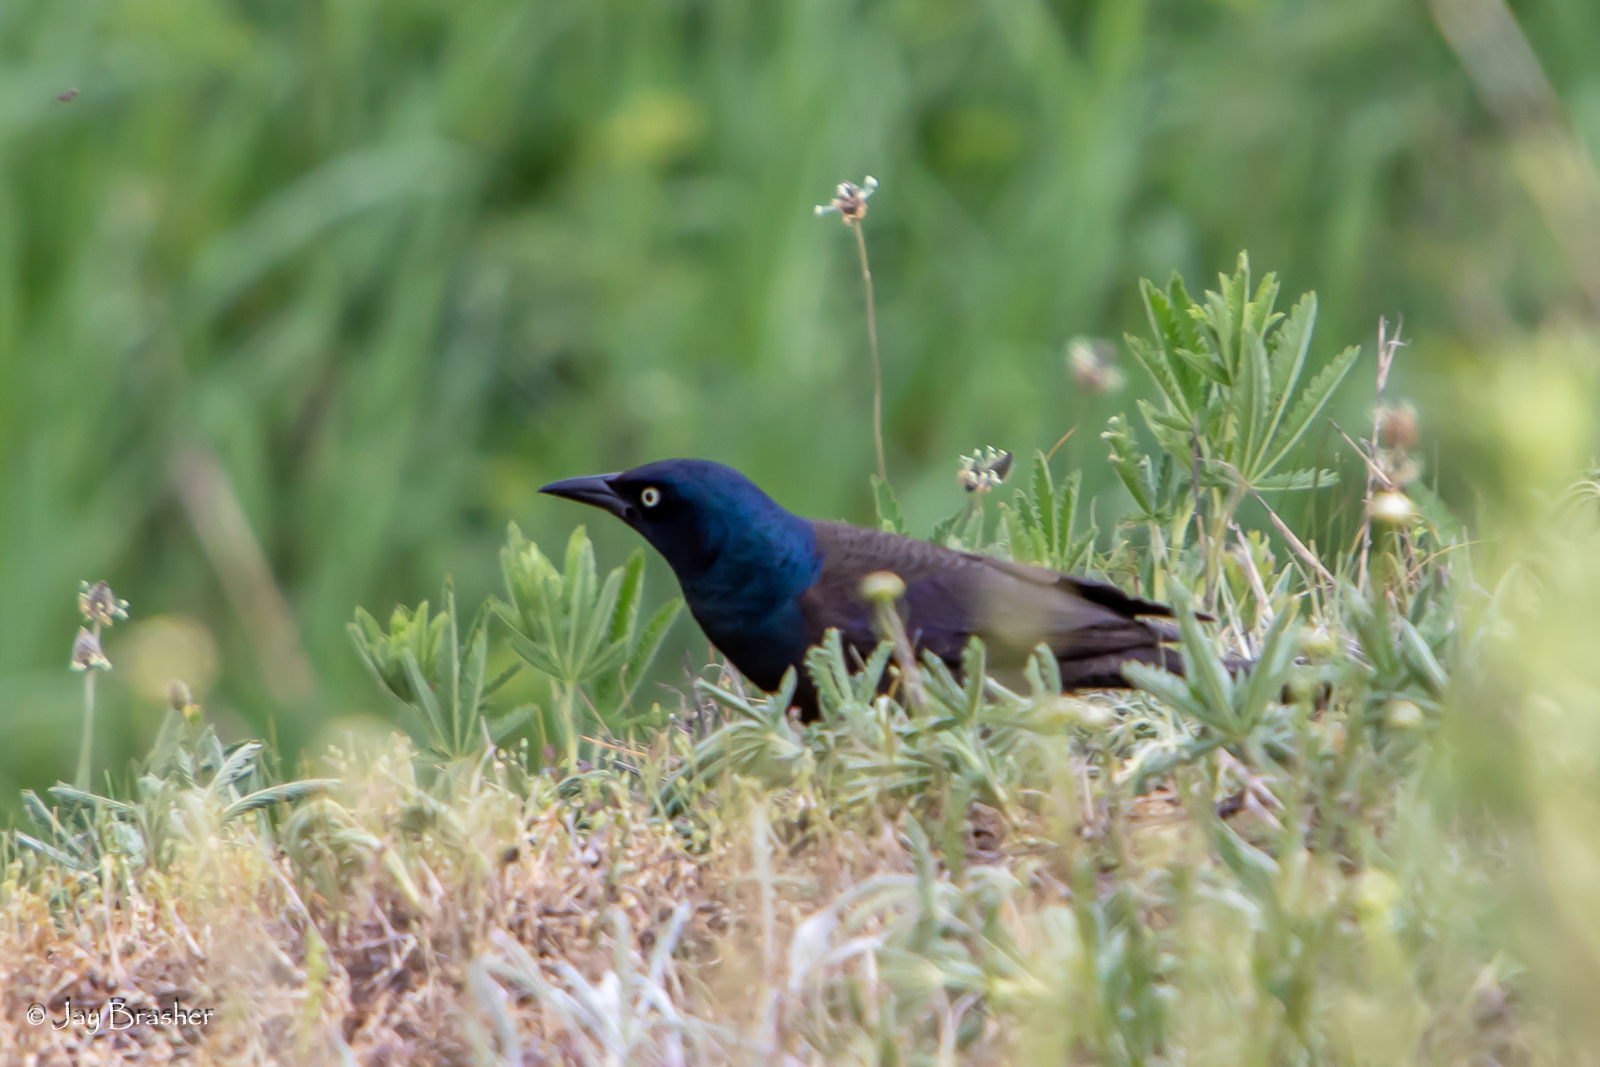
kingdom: Animalia
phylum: Chordata
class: Aves
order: Passeriformes
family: Icteridae
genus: Quiscalus
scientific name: Quiscalus quiscula
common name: Common grackle
